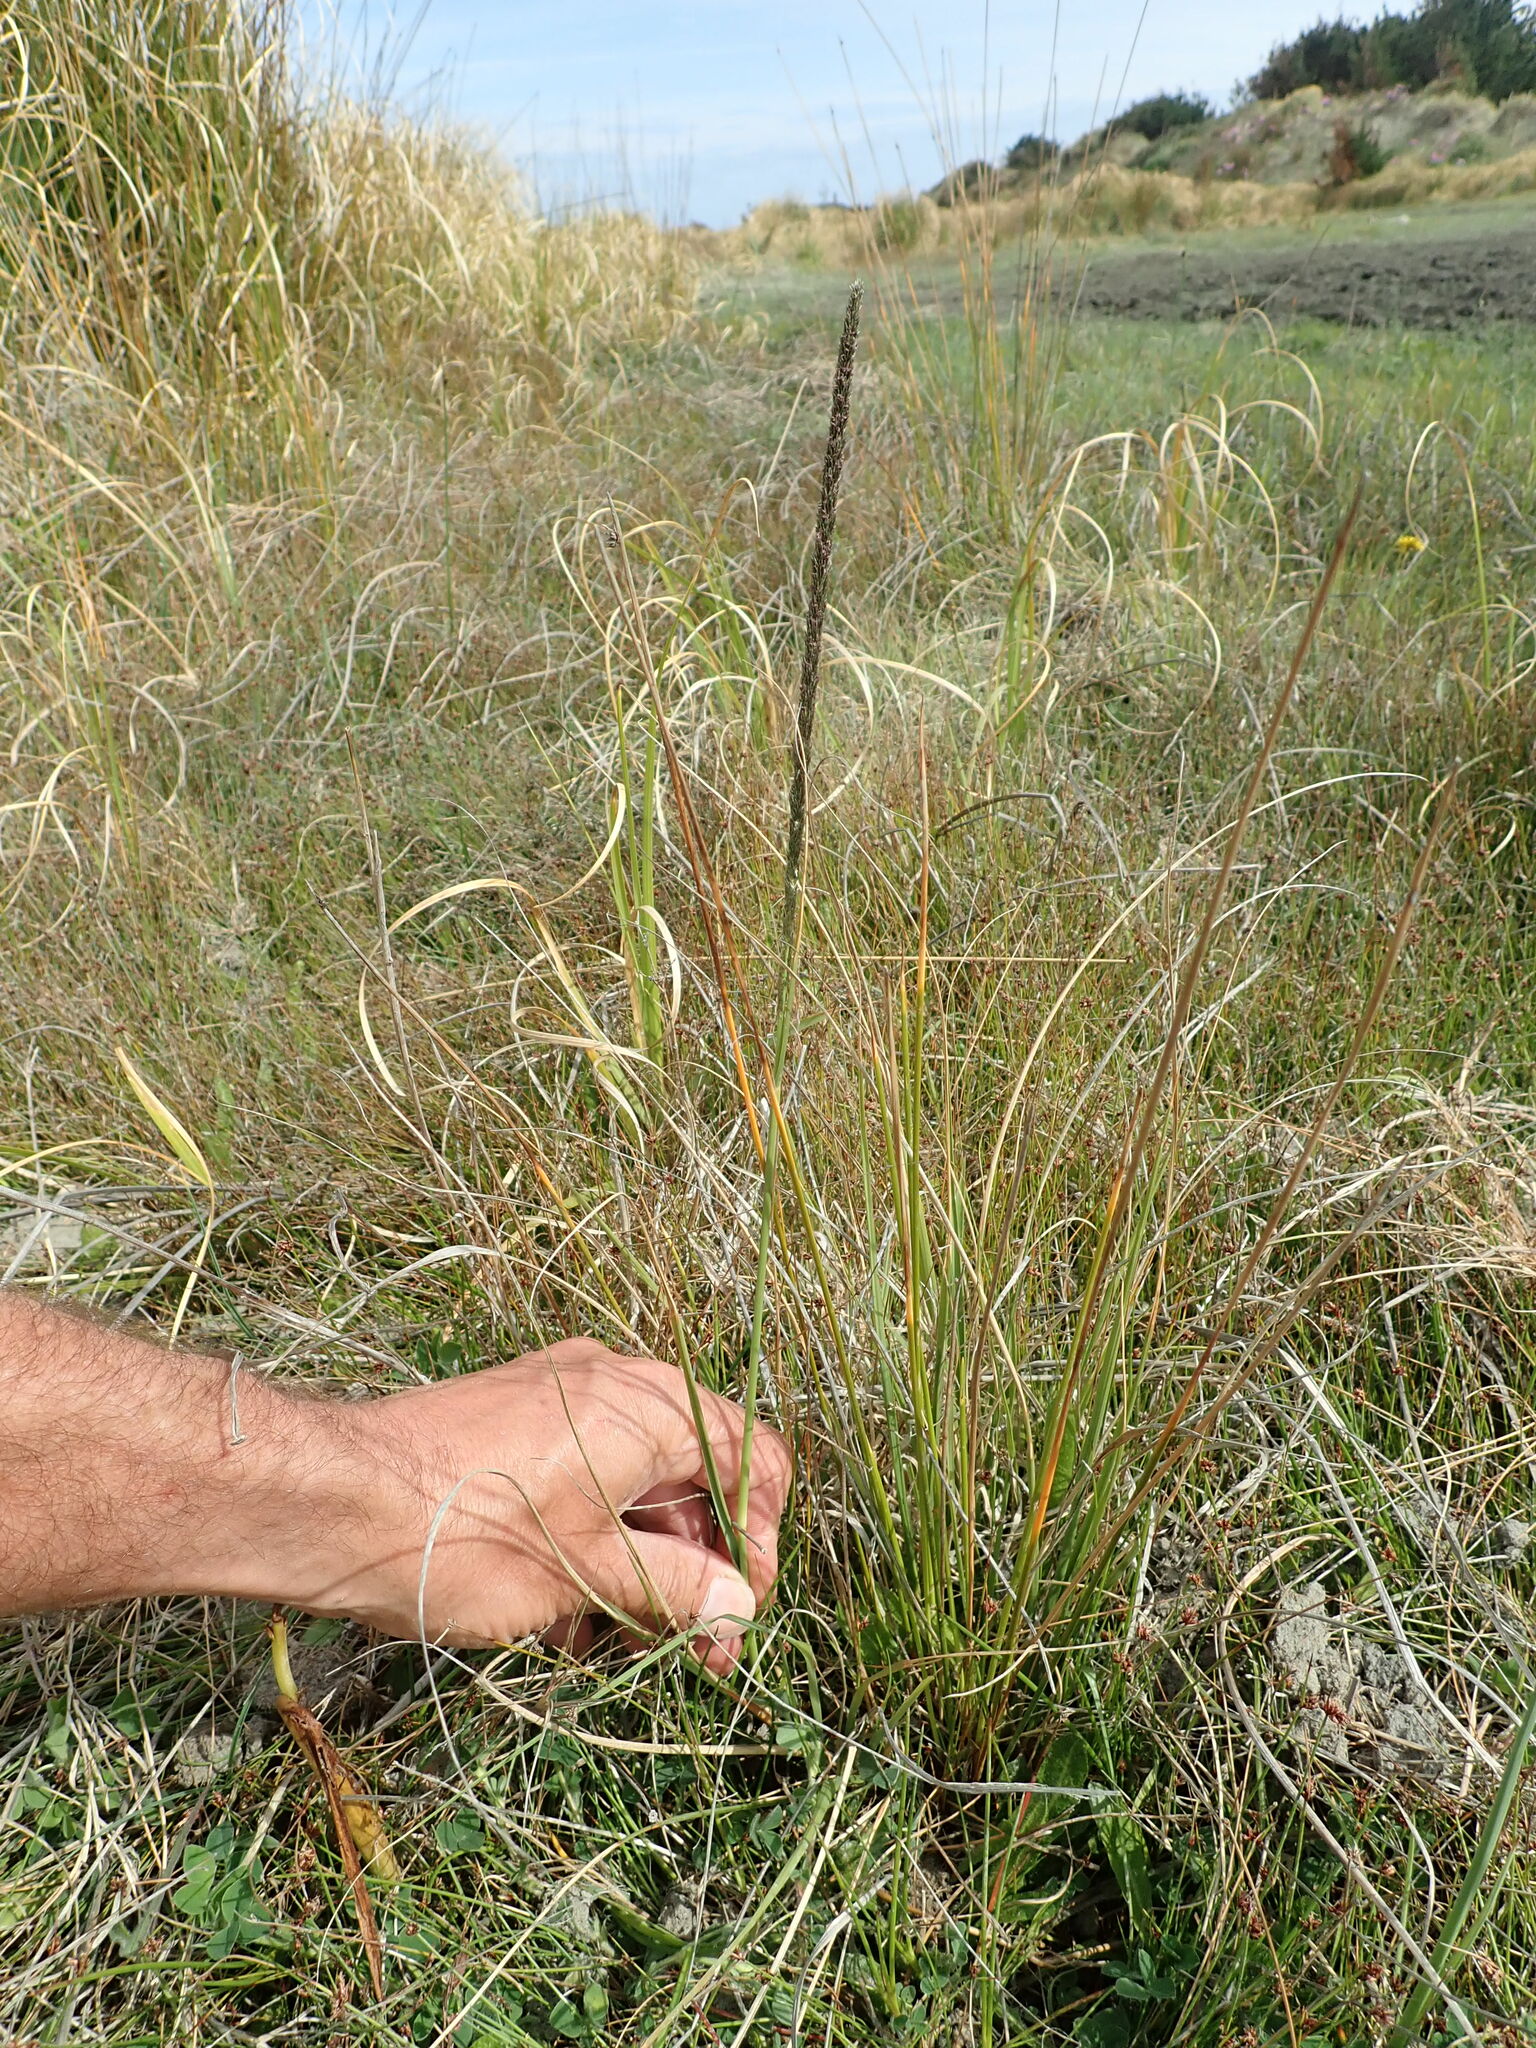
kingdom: Plantae
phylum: Tracheophyta
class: Liliopsida
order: Poales
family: Poaceae
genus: Sporobolus
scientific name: Sporobolus africanus
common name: African dropseed
